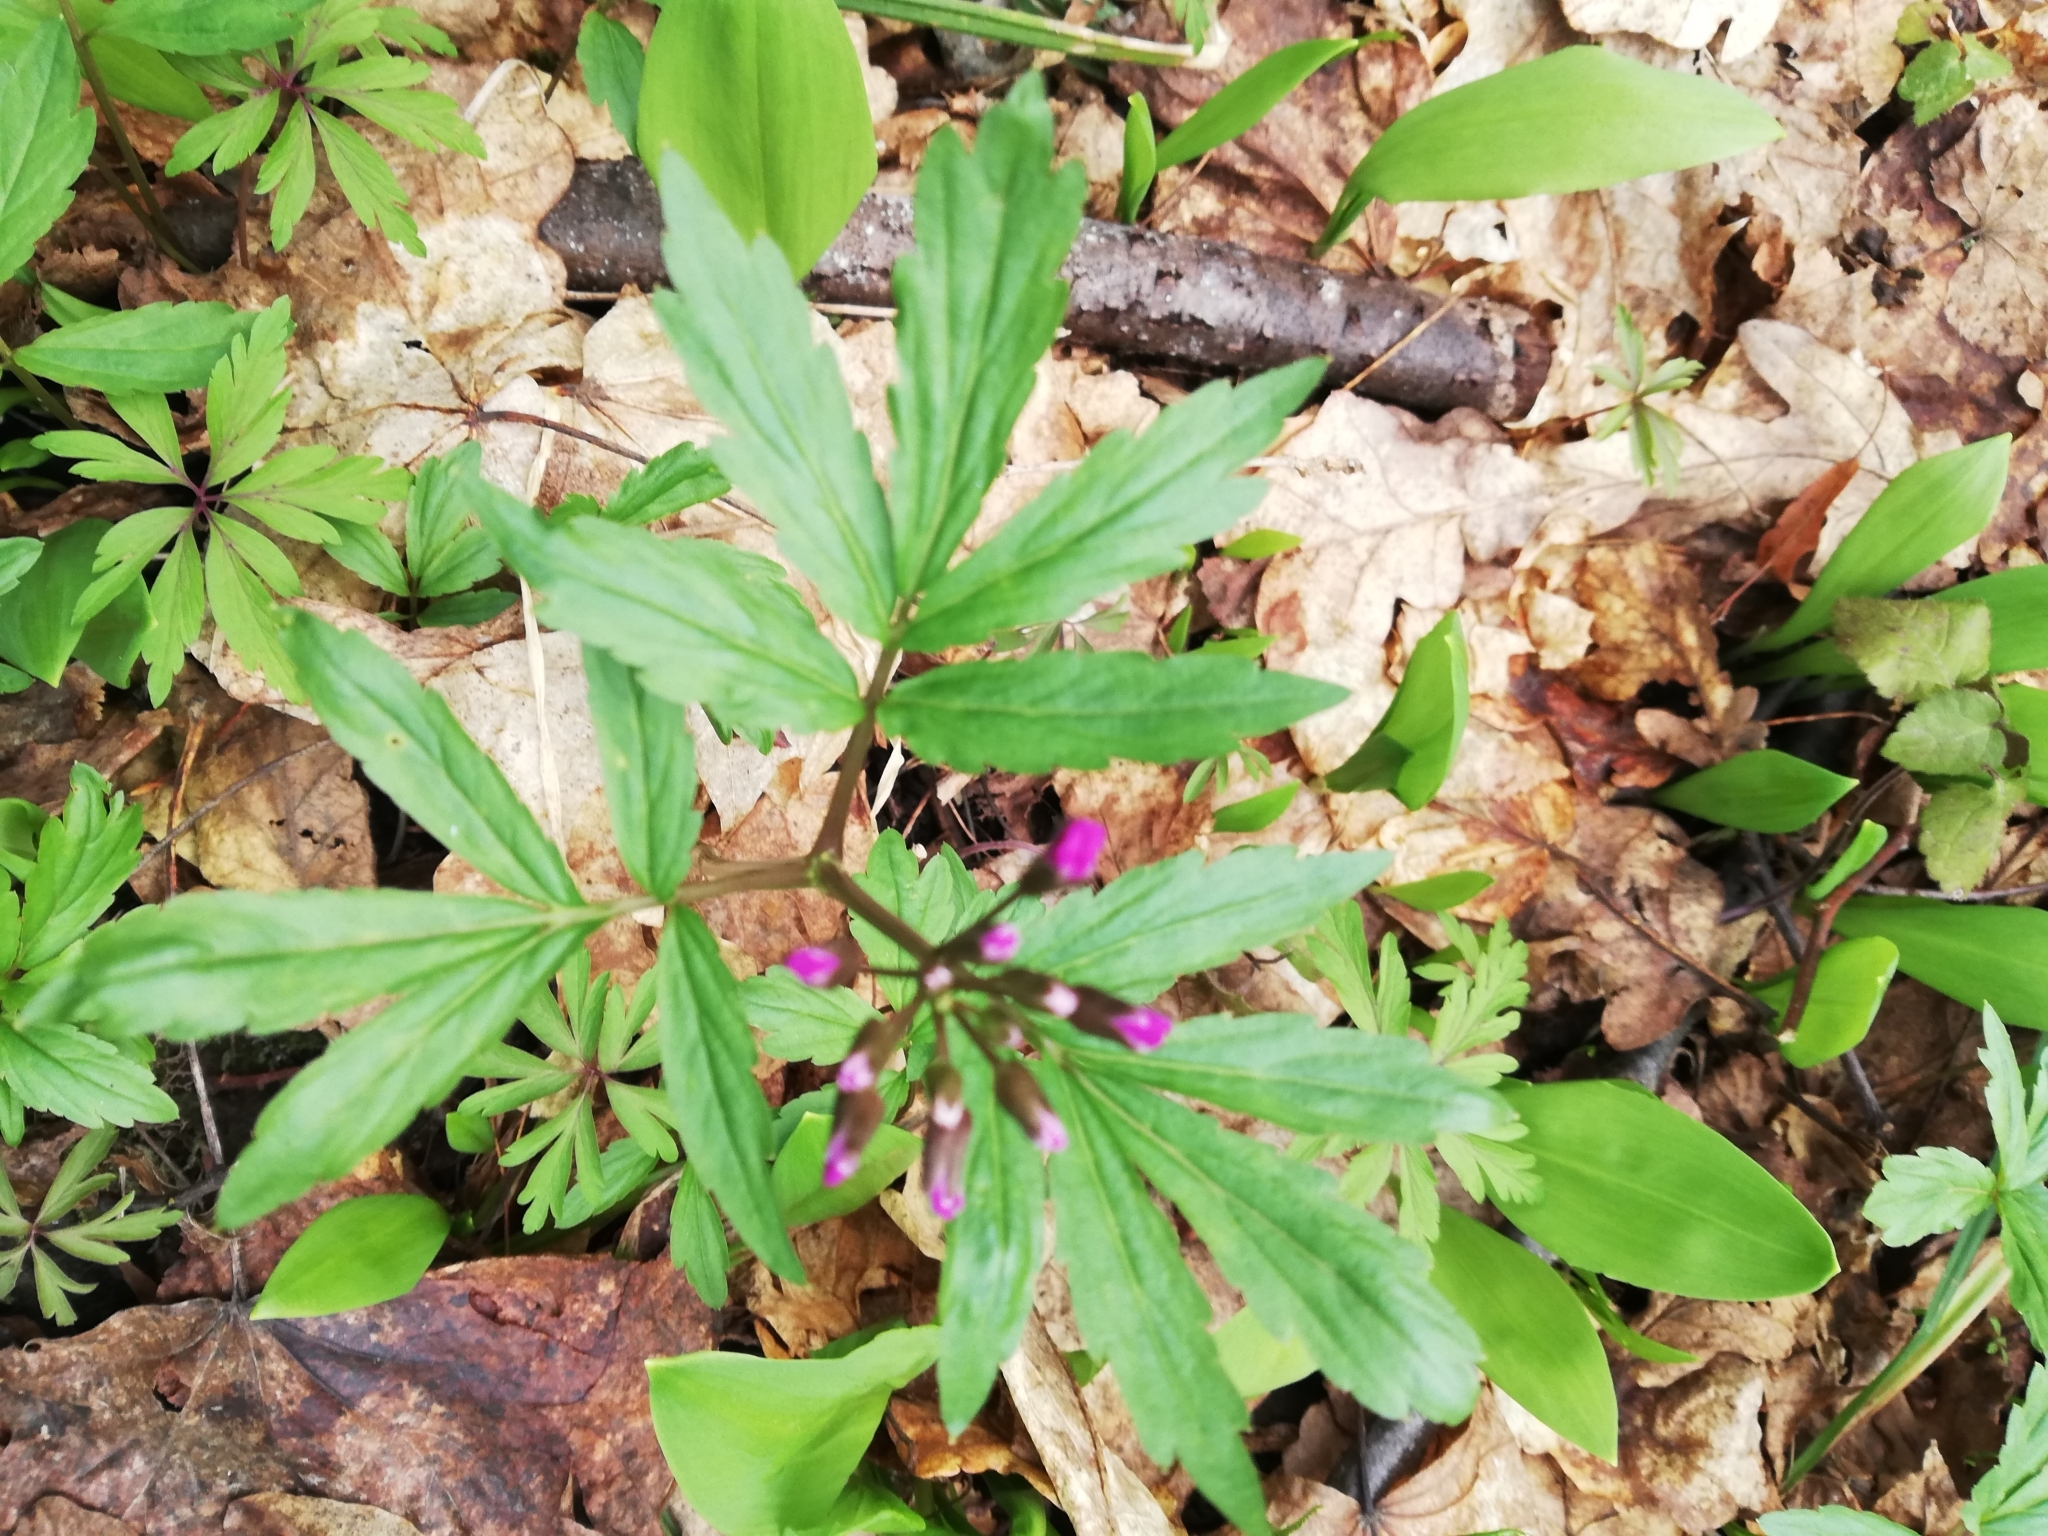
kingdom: Plantae
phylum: Tracheophyta
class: Magnoliopsida
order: Brassicales
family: Brassicaceae
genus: Cardamine
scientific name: Cardamine quinquefolia
